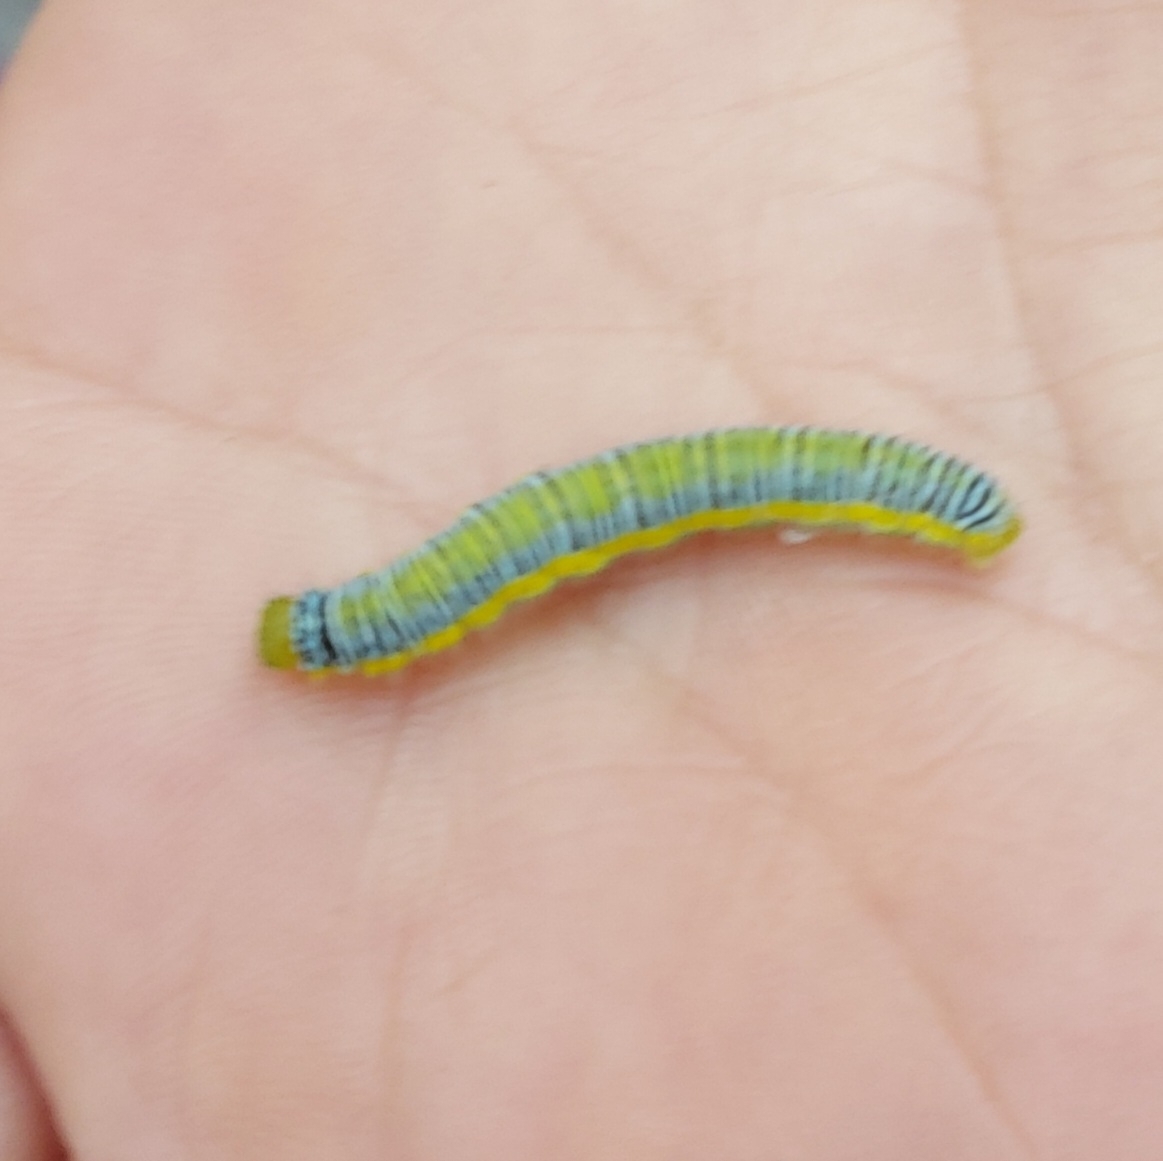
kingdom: Animalia
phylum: Arthropoda
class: Insecta
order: Lepidoptera
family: Pieridae
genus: Leptophobia
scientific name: Leptophobia aripa
